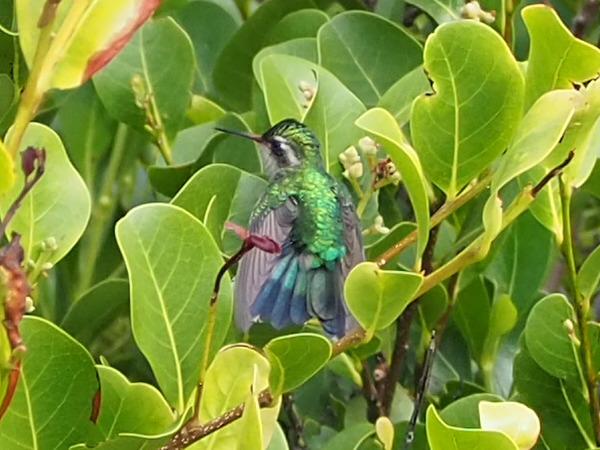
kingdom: Animalia
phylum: Chordata
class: Aves
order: Apodiformes
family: Trochilidae
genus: Cynanthus
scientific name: Cynanthus canivetii
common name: Canivet's emerald
